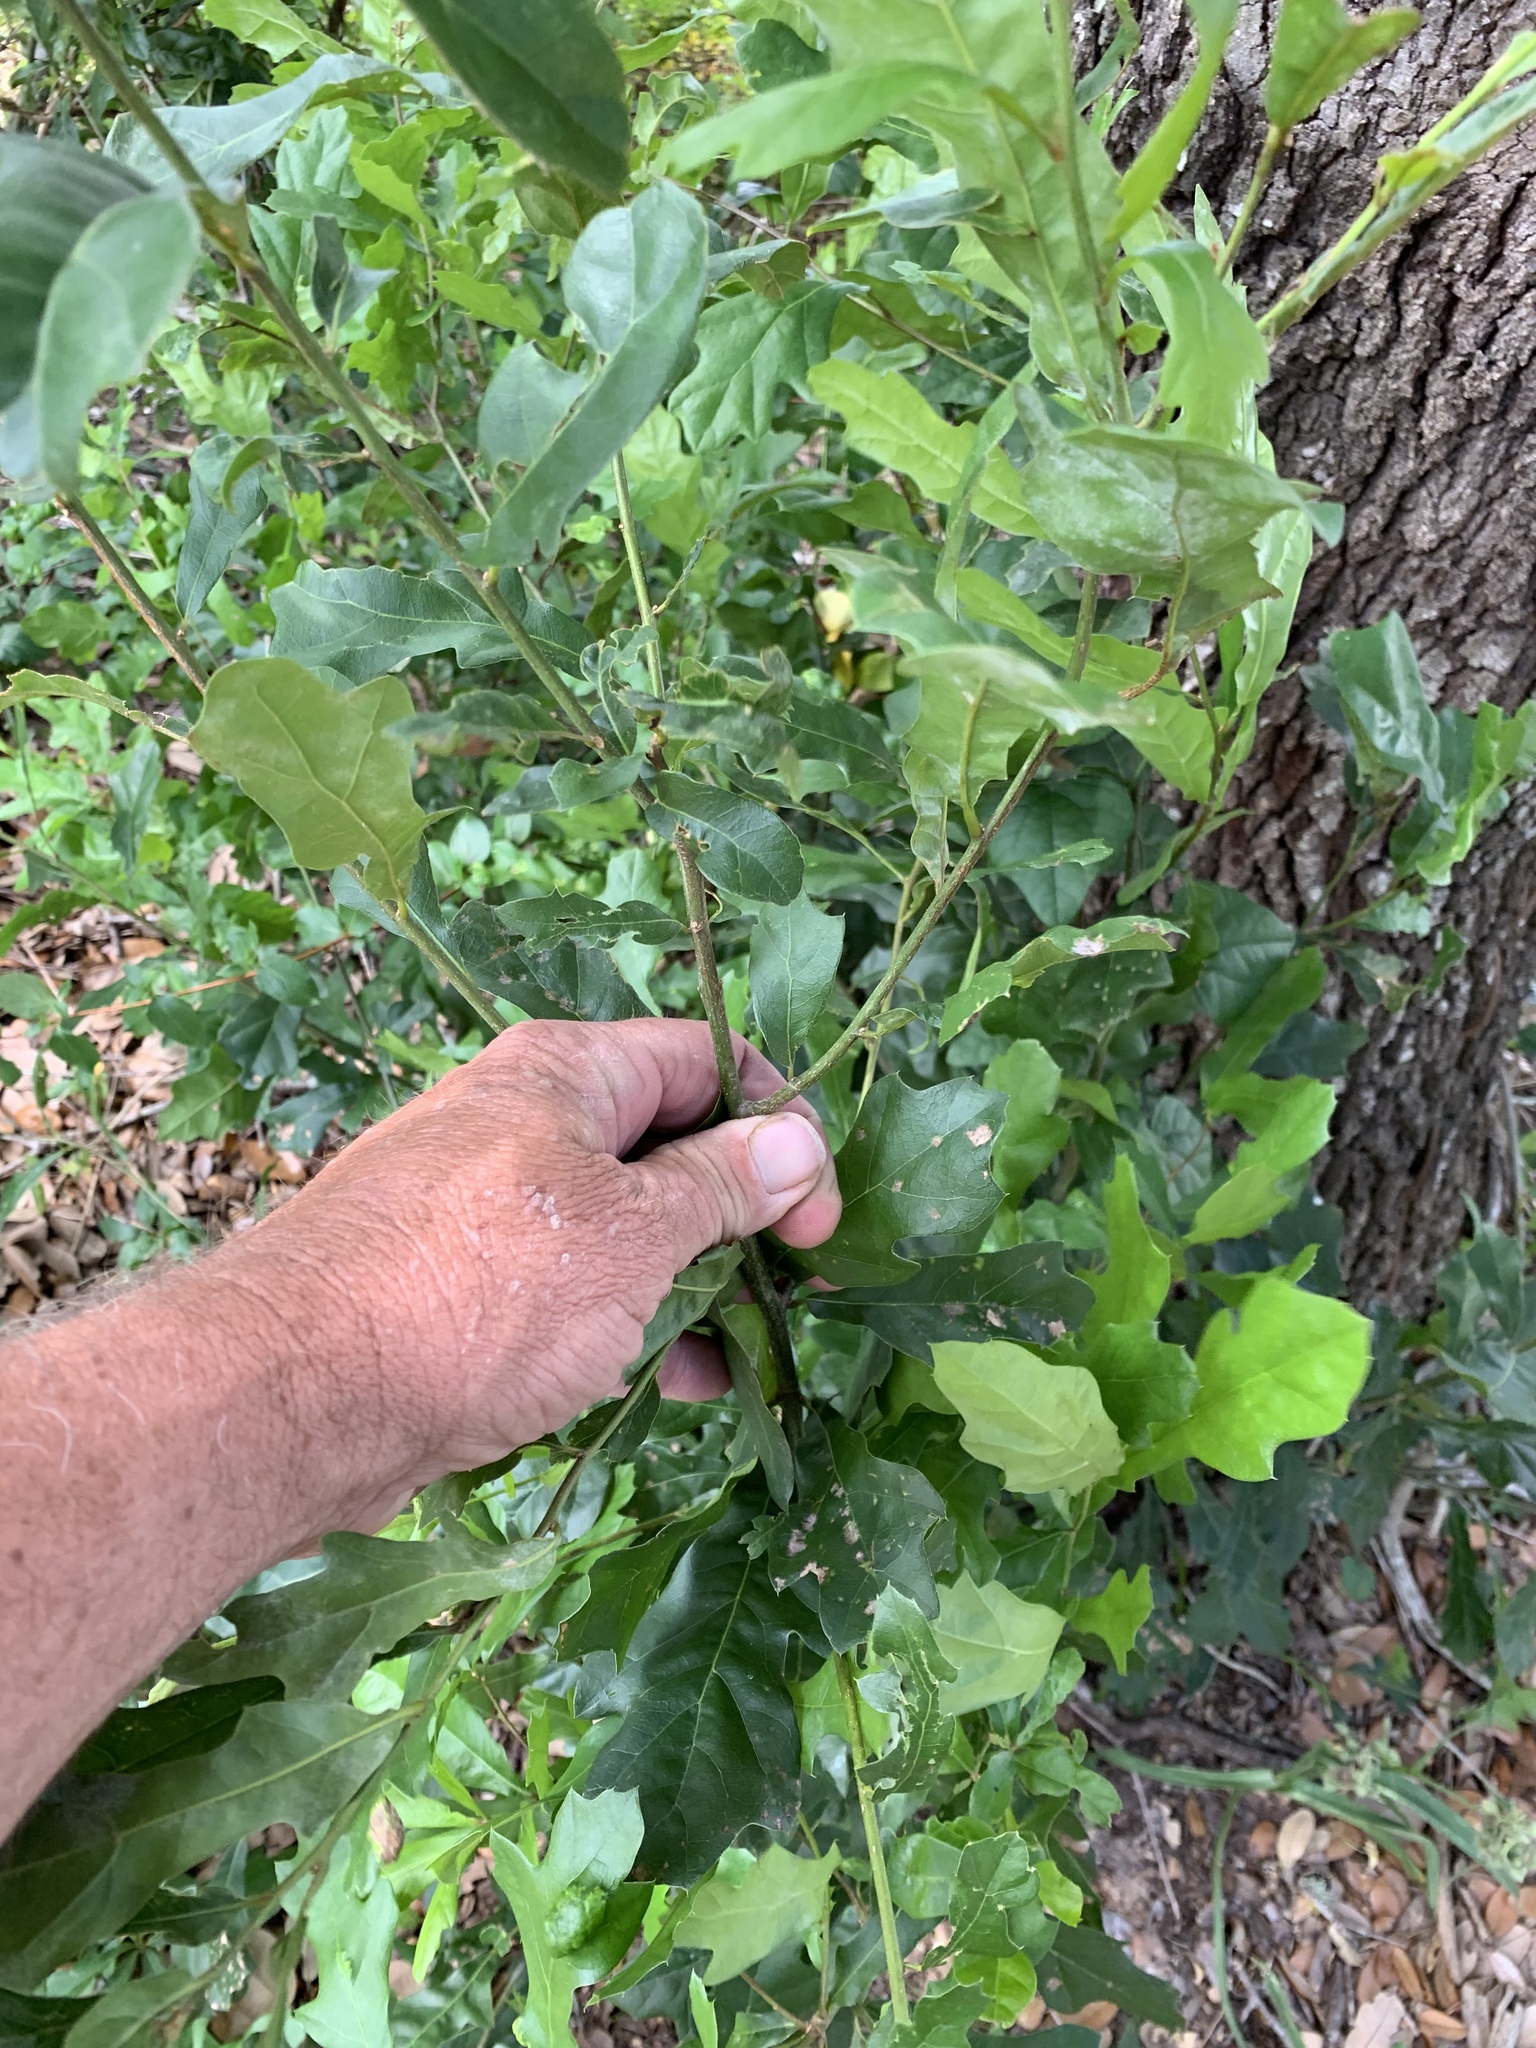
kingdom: Plantae
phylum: Tracheophyta
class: Magnoliopsida
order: Fagales
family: Fagaceae
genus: Quercus
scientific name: Quercus nigra
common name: Water oak
